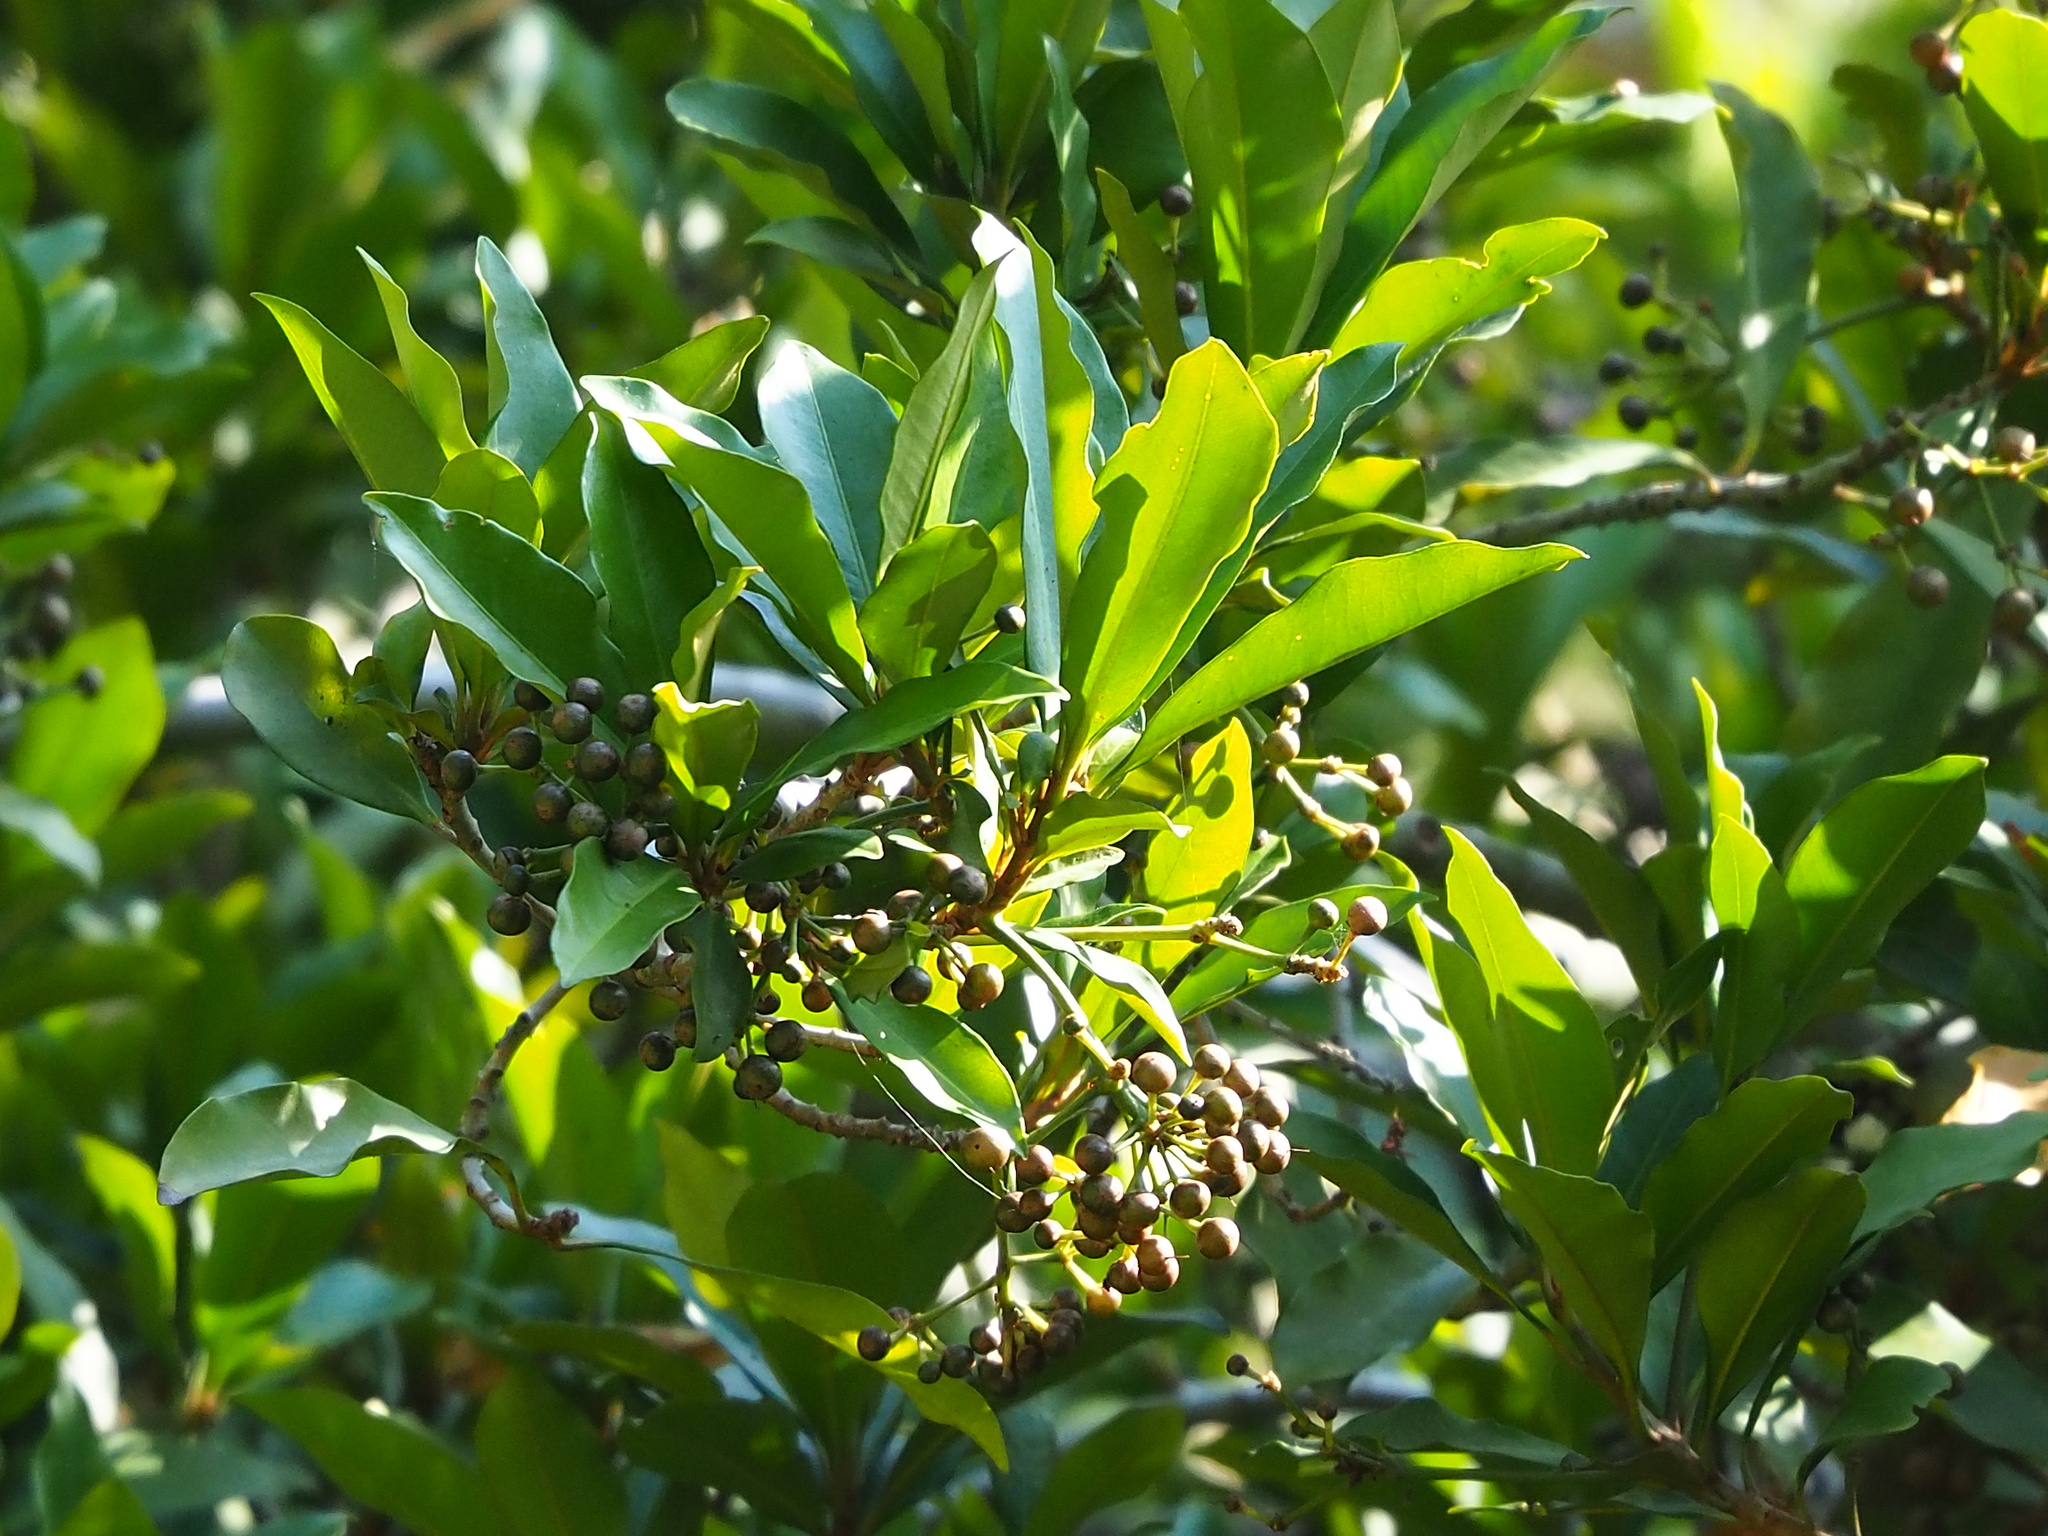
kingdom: Plantae
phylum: Tracheophyta
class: Magnoliopsida
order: Ericales
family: Primulaceae
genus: Ardisia
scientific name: Ardisia sieboldii
